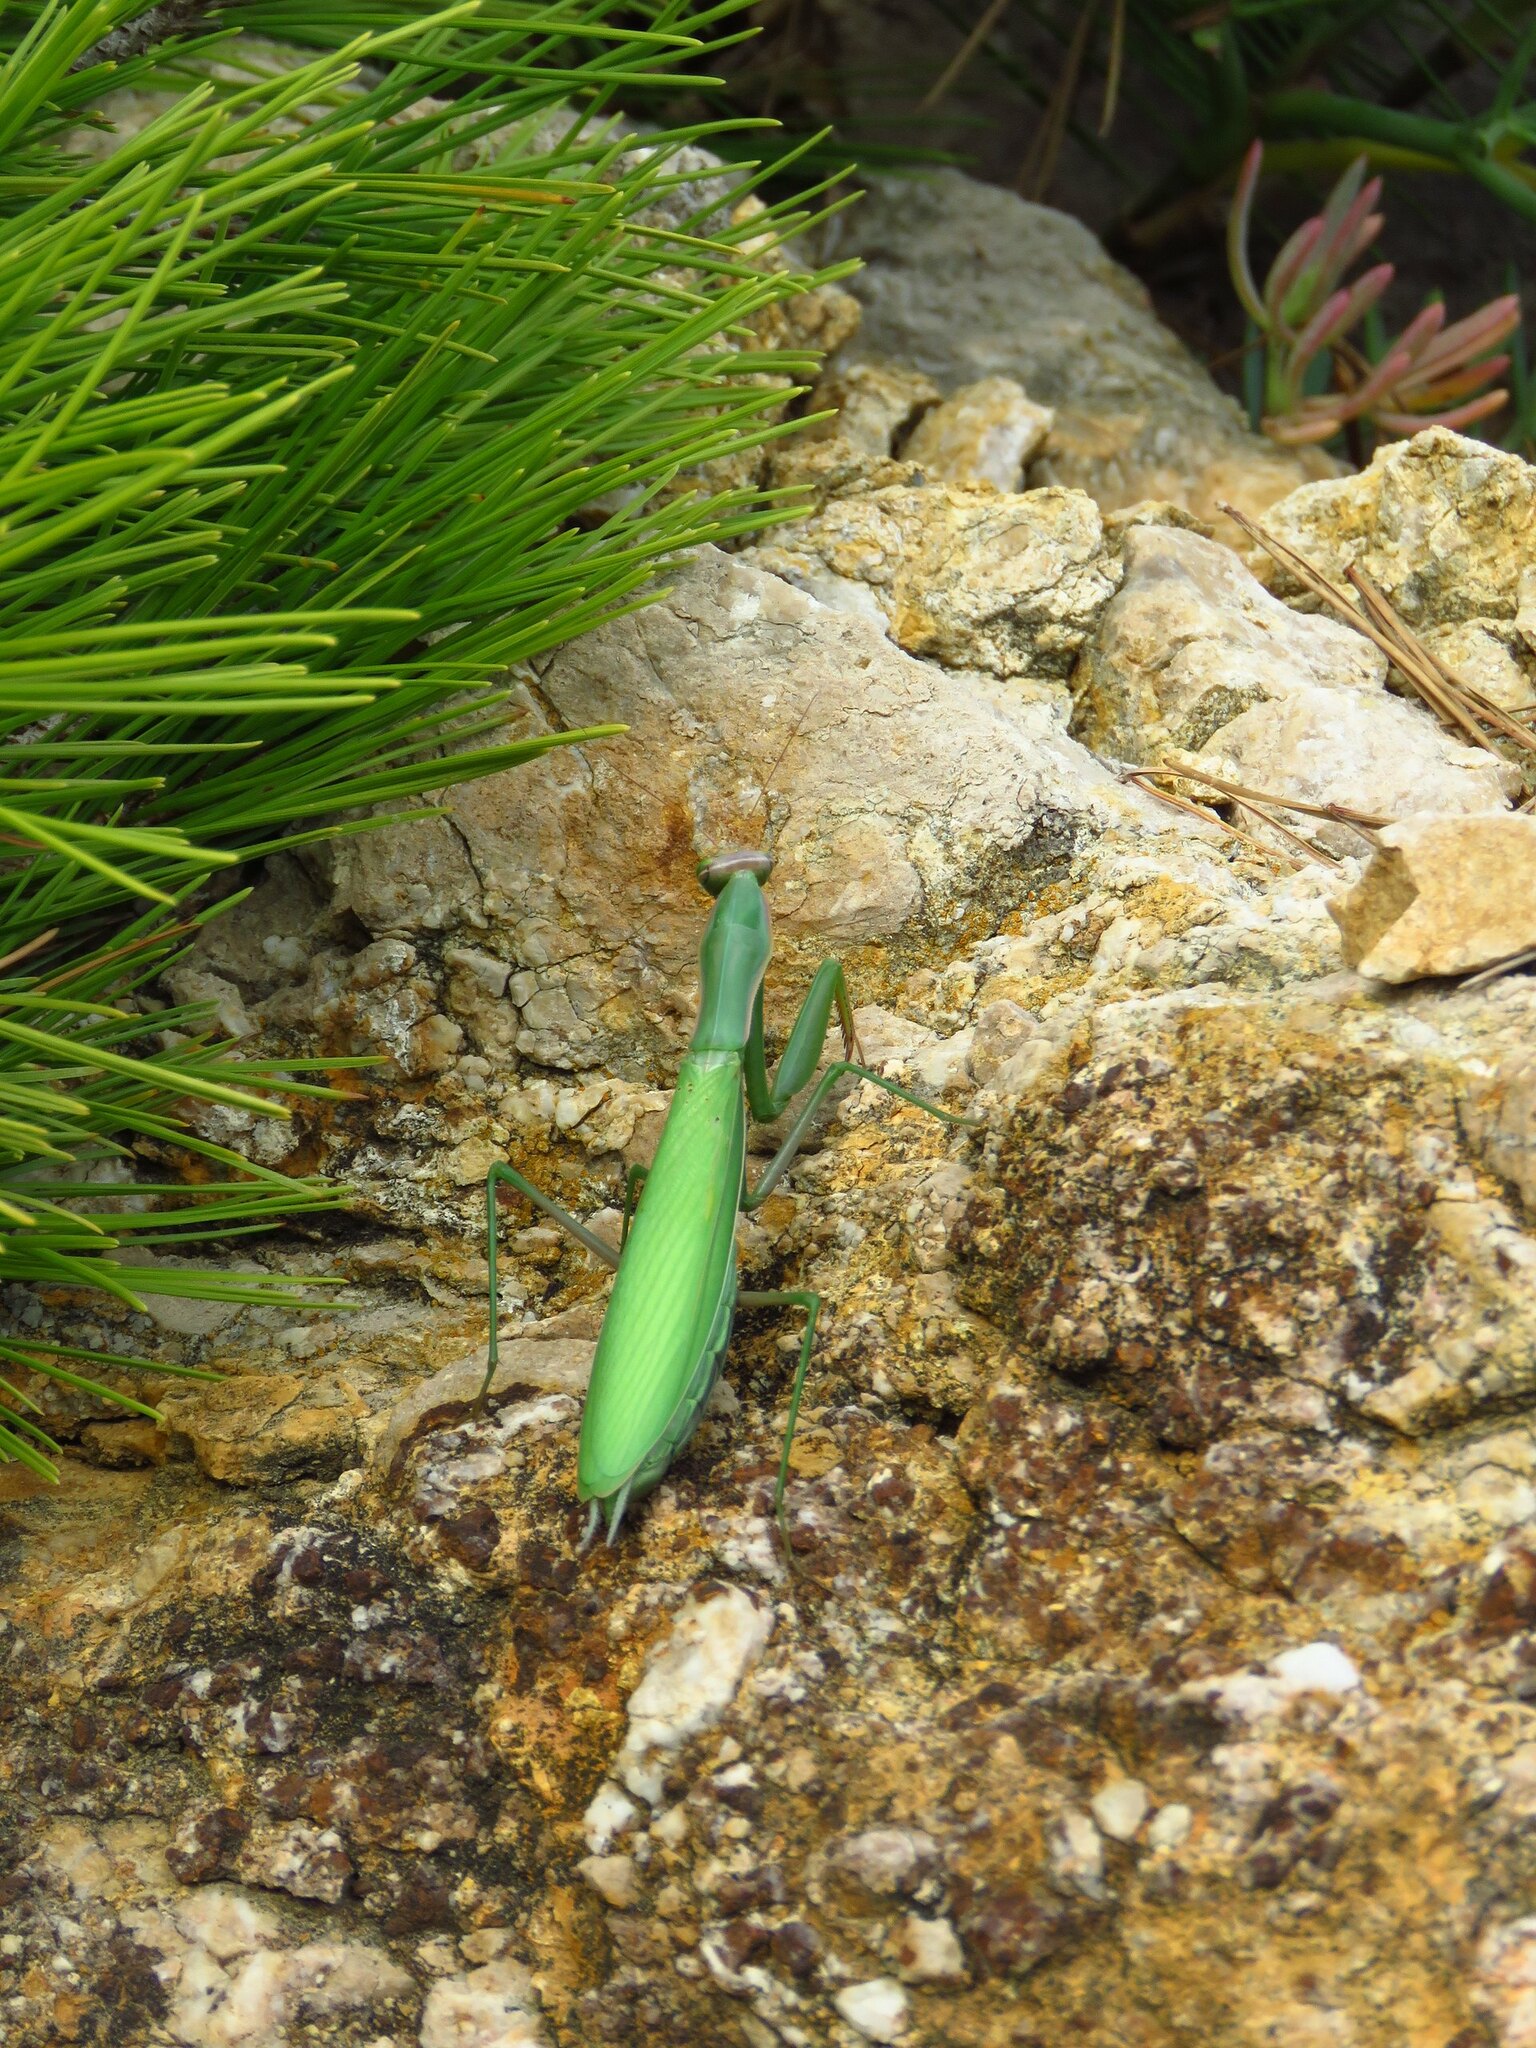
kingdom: Animalia
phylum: Arthropoda
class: Insecta
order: Mantodea
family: Mantidae
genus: Mantis
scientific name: Mantis religiosa
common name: Praying mantis
